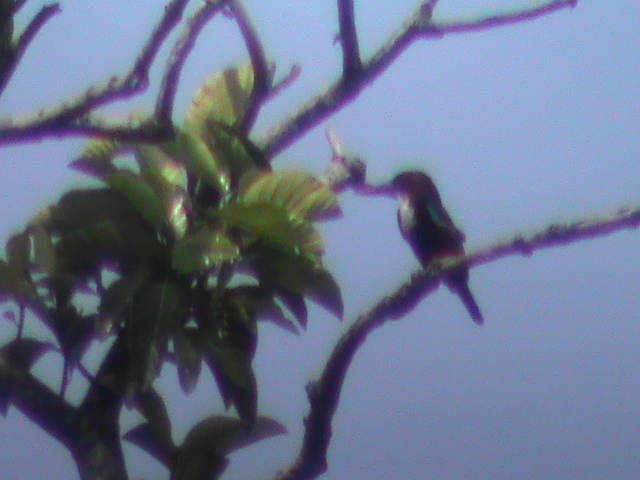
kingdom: Animalia
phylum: Chordata
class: Aves
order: Coraciiformes
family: Alcedinidae
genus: Halcyon
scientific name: Halcyon smyrnensis
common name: White-throated kingfisher
